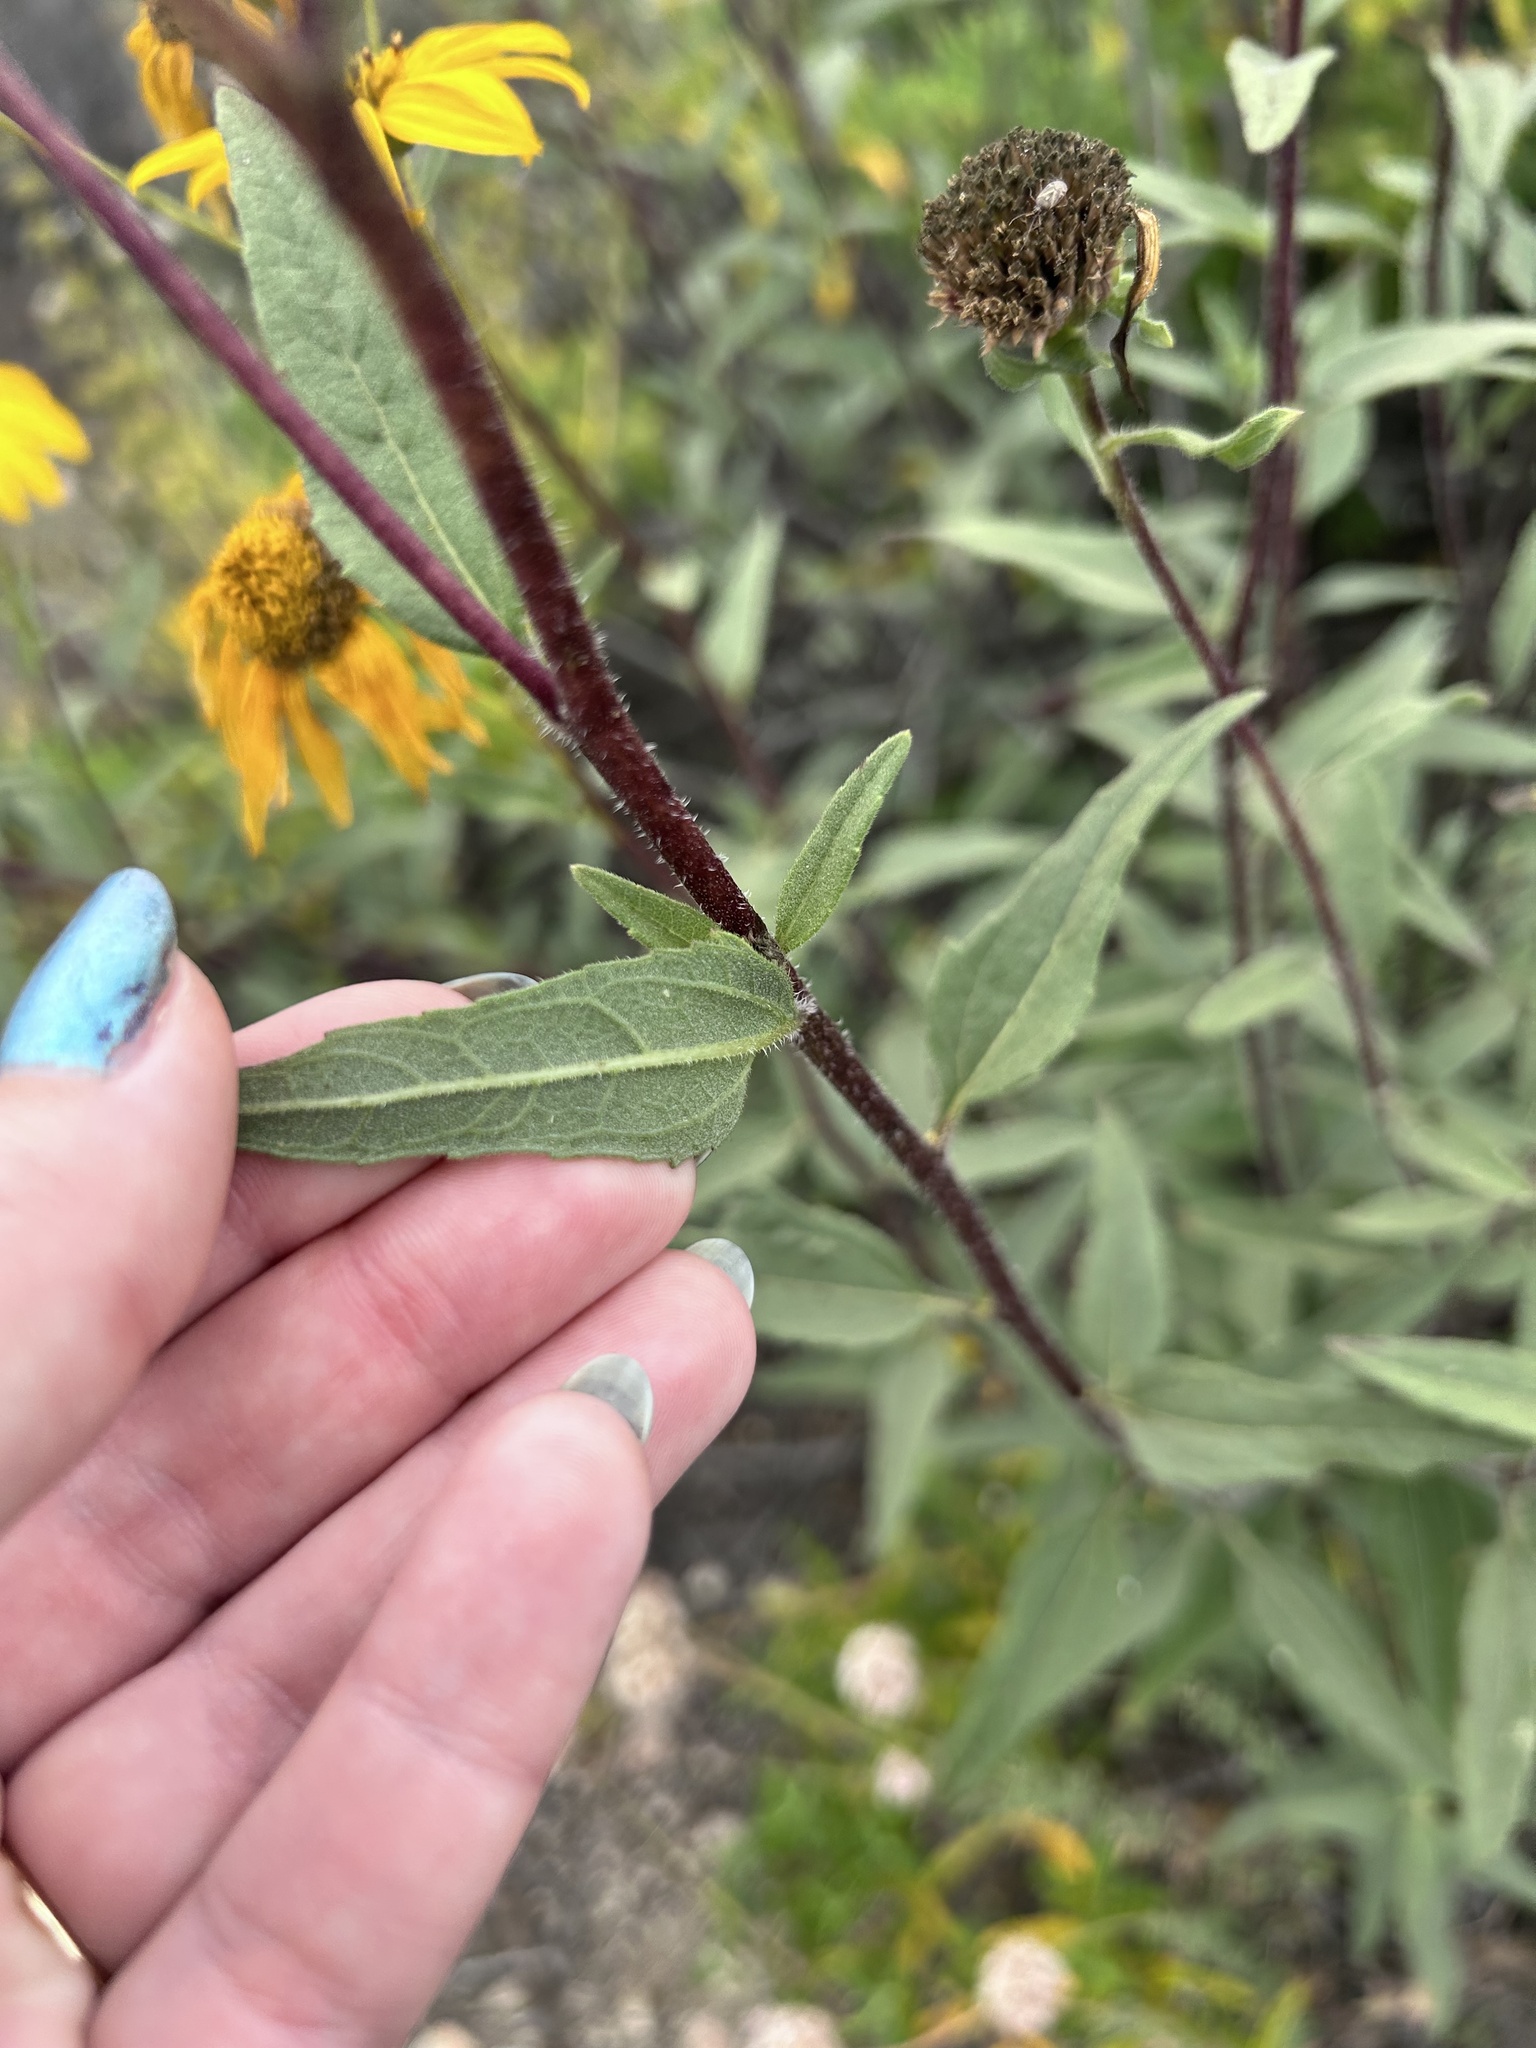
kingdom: Plantae
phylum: Tracheophyta
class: Magnoliopsida
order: Asterales
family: Asteraceae
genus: Helianthus
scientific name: Helianthus gracilentus
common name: Slender sunflower
